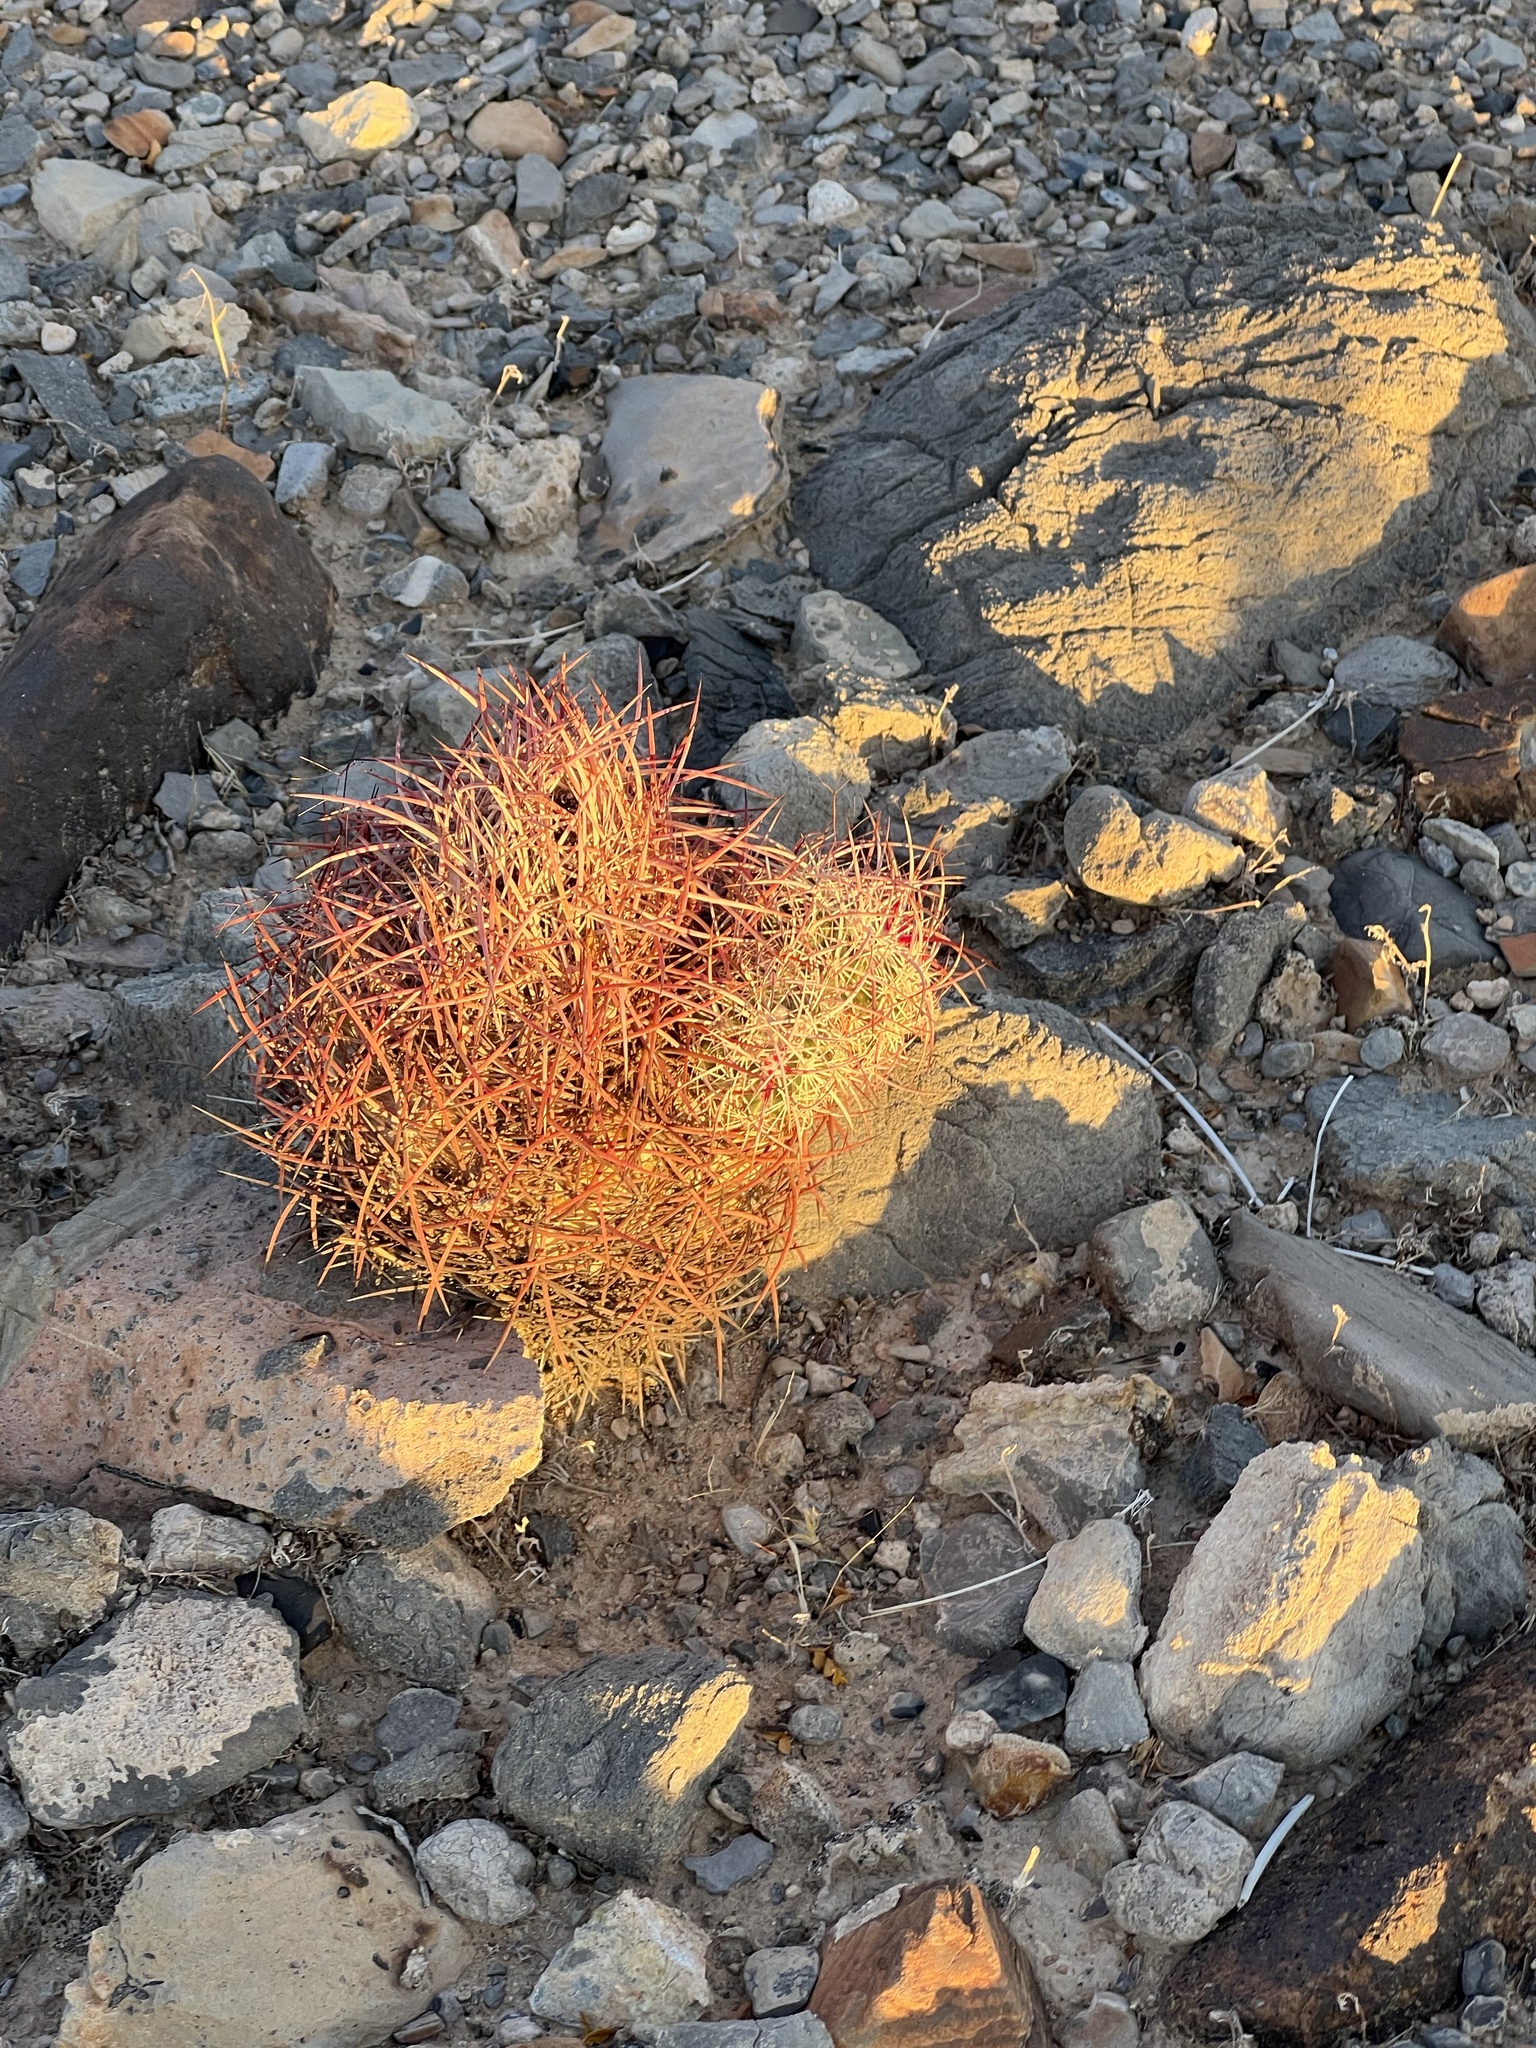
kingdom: Plantae
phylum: Tracheophyta
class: Magnoliopsida
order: Caryophyllales
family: Cactaceae
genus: Sclerocactus
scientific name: Sclerocactus johnsonii
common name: Eight-spine fishhook cactus
